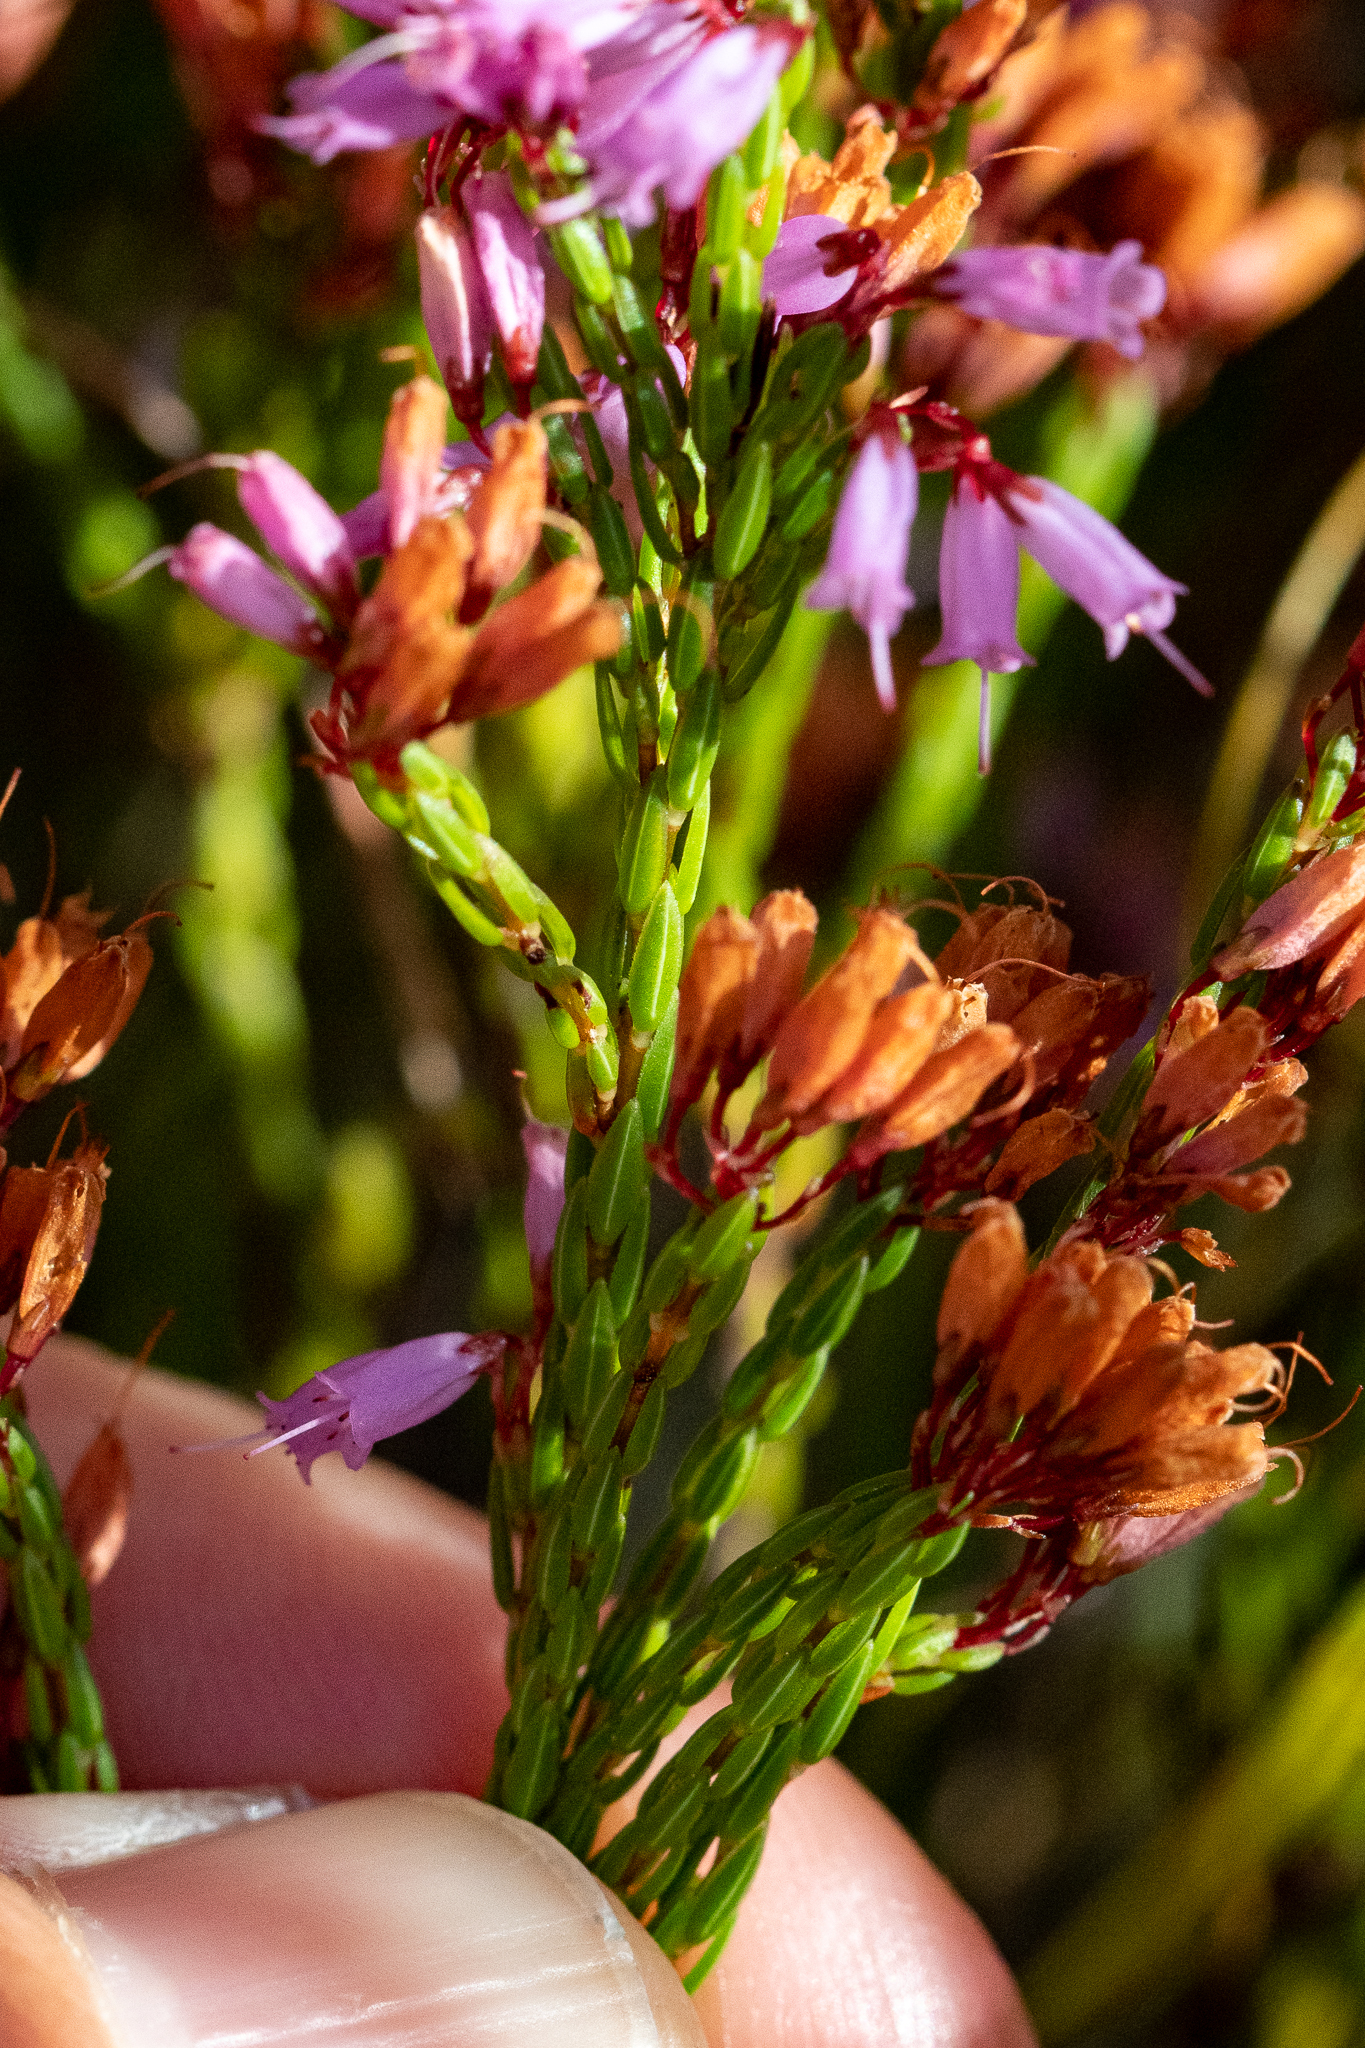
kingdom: Plantae
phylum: Tracheophyta
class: Magnoliopsida
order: Ericales
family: Ericaceae
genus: Erica
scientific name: Erica equisetifolia
